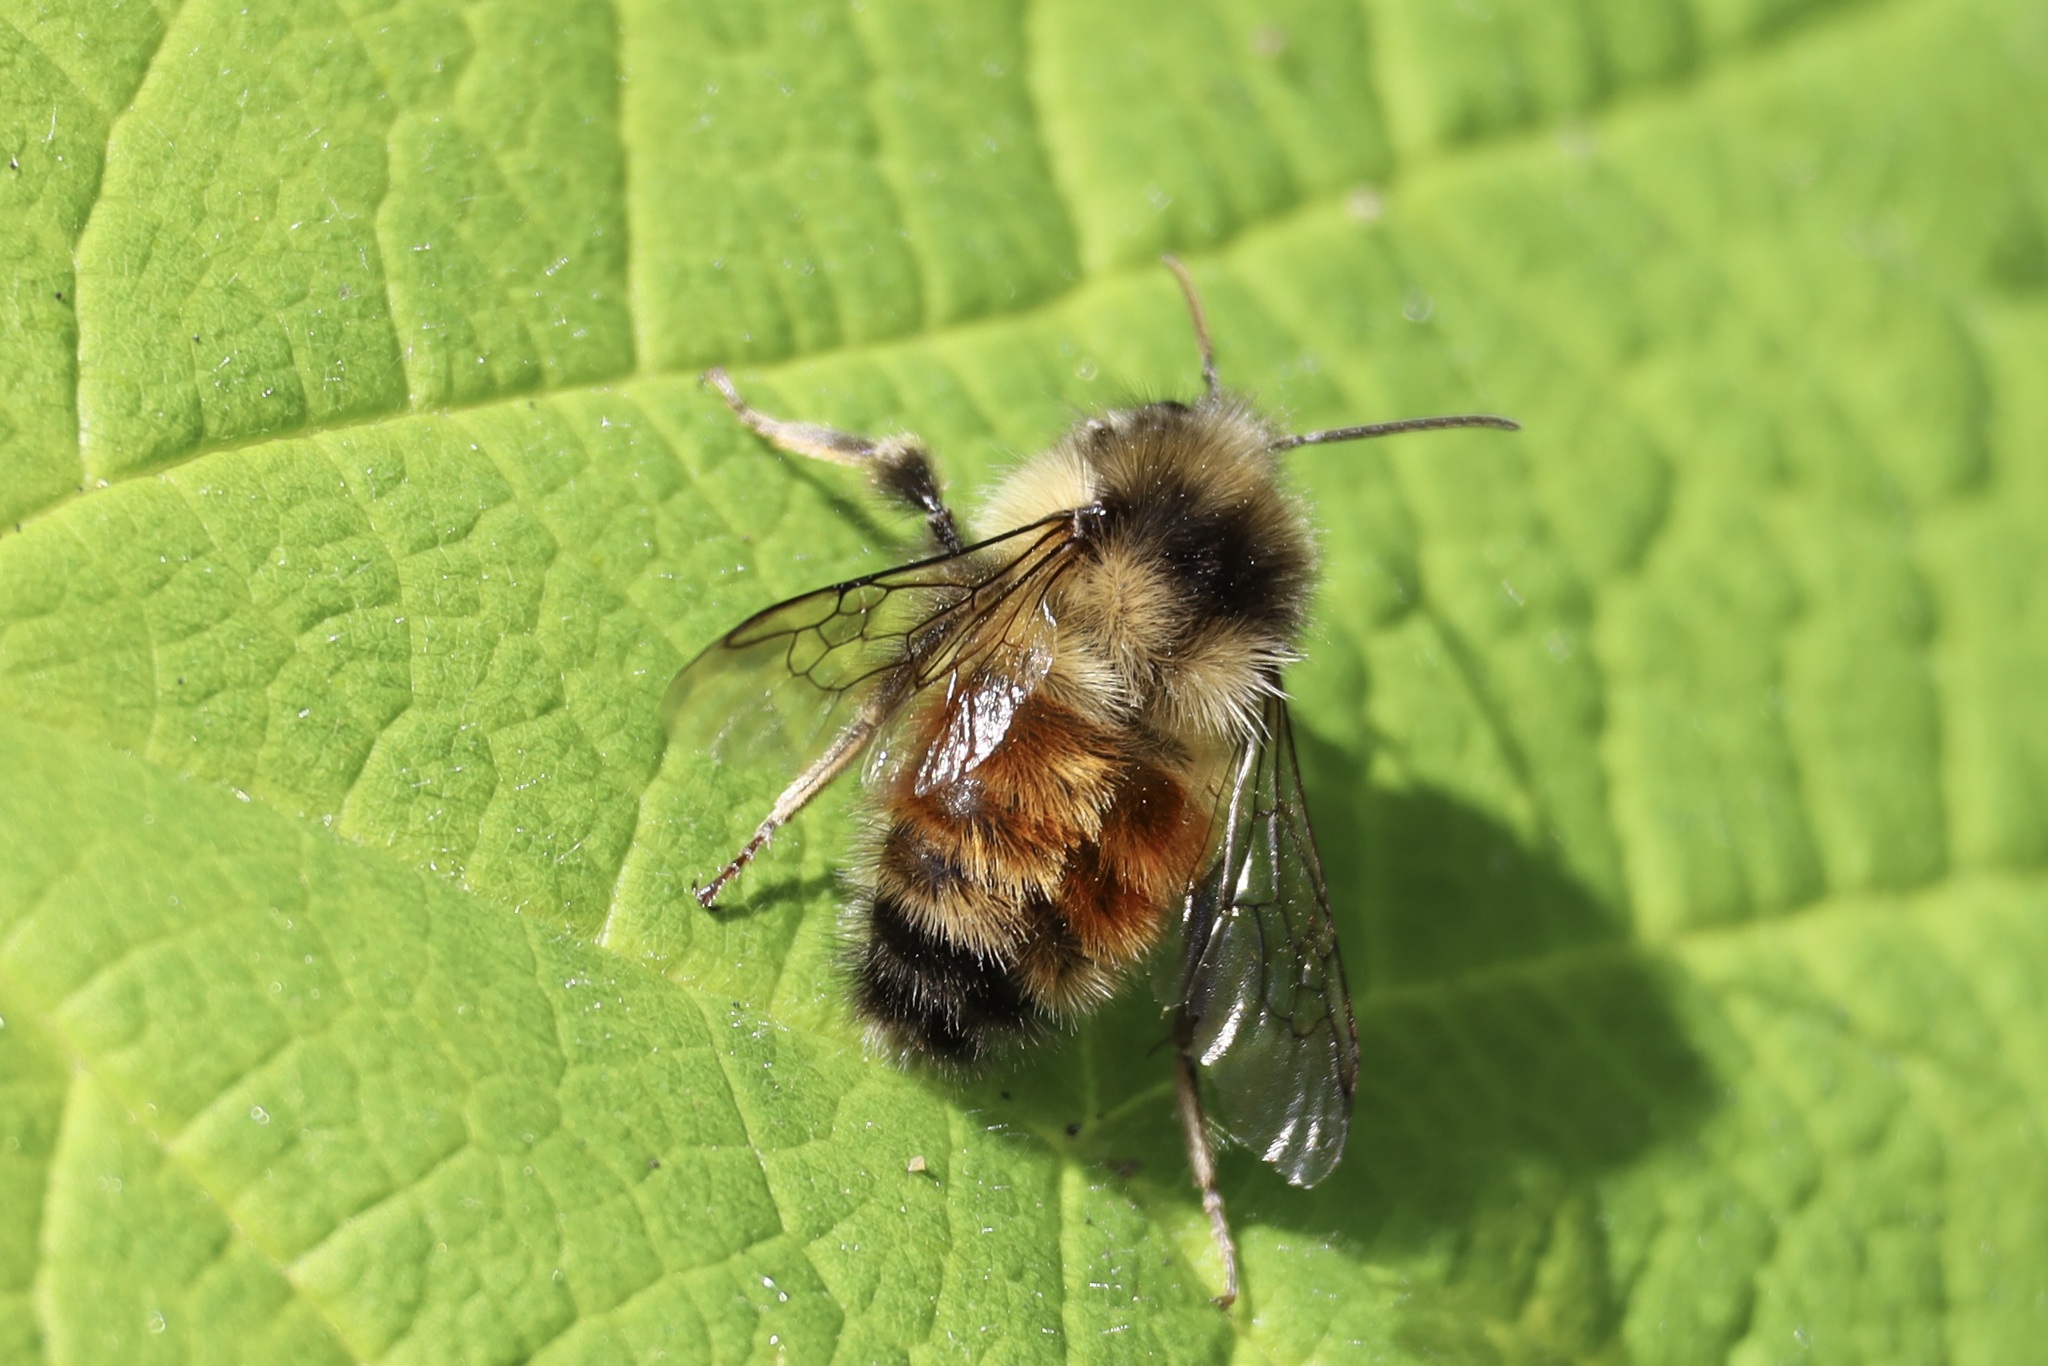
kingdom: Animalia
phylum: Arthropoda
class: Insecta
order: Hymenoptera
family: Apidae
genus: Bombus
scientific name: Bombus melanopygus
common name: Black tail bumble bee
